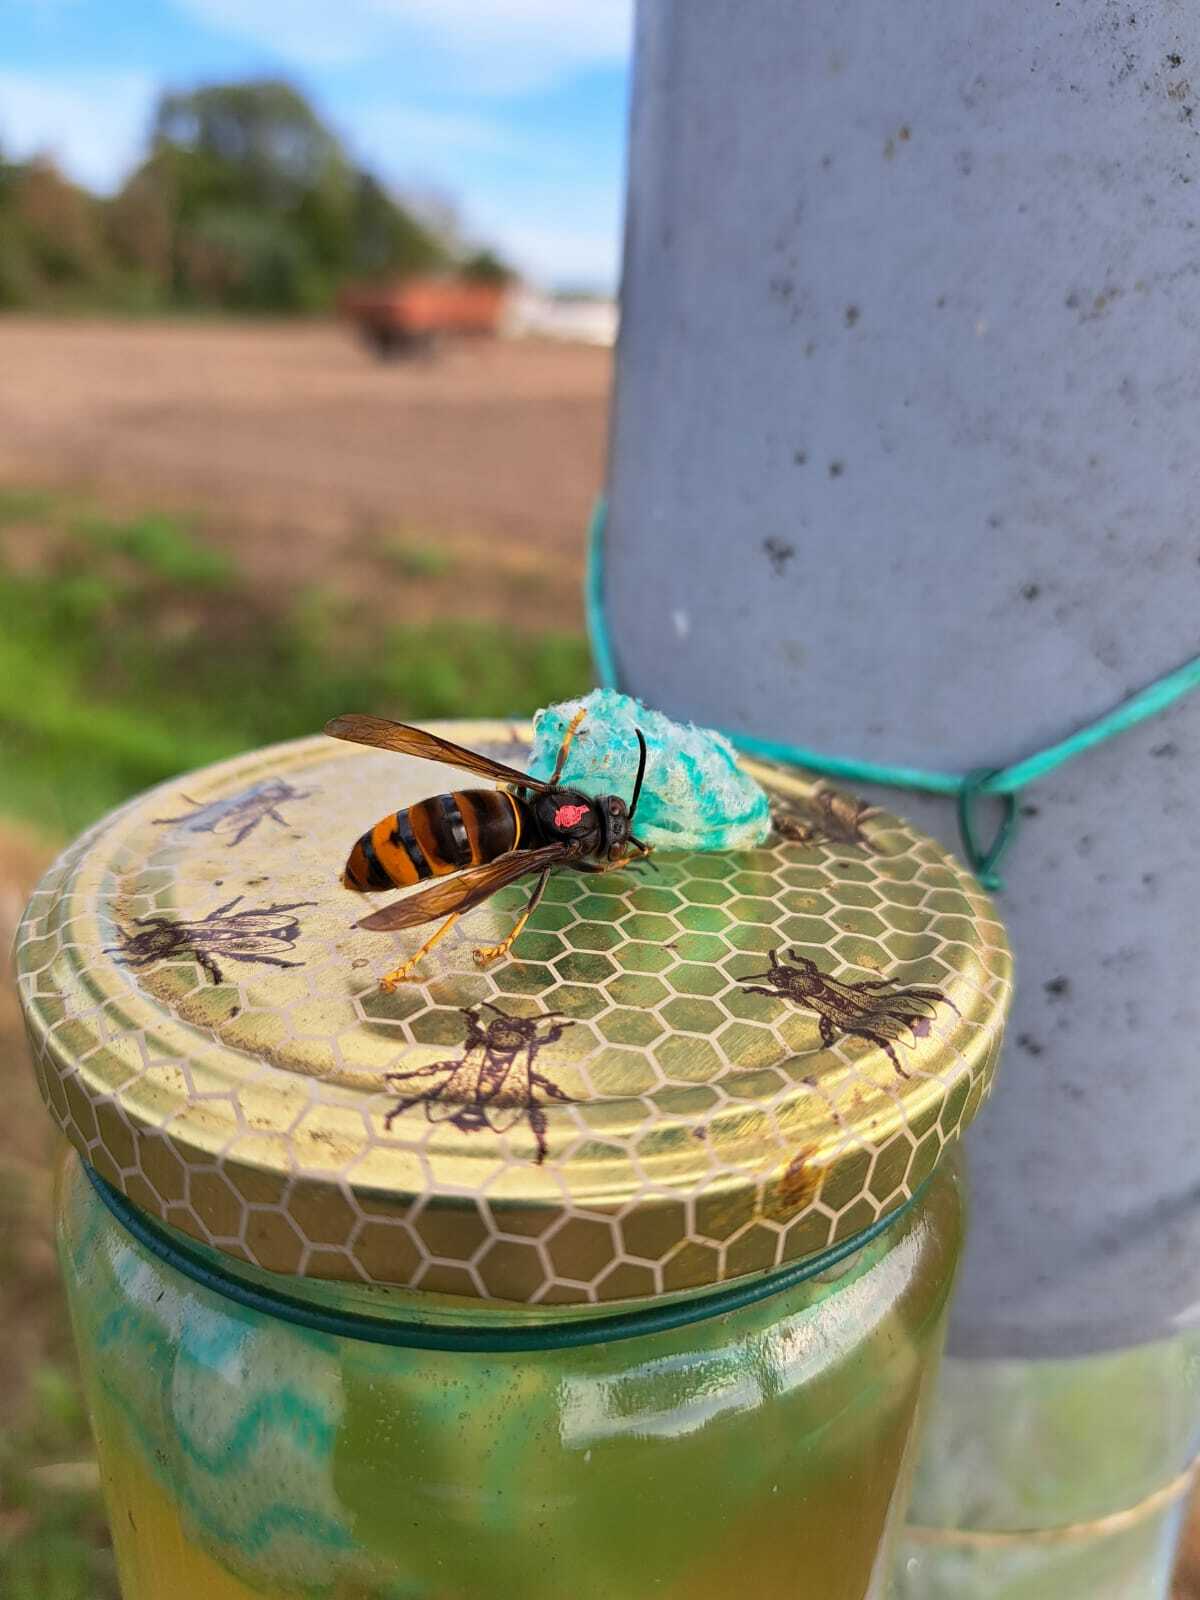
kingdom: Animalia
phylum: Arthropoda
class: Insecta
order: Hymenoptera
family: Vespidae
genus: Vespa
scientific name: Vespa velutina
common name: Asian hornet
